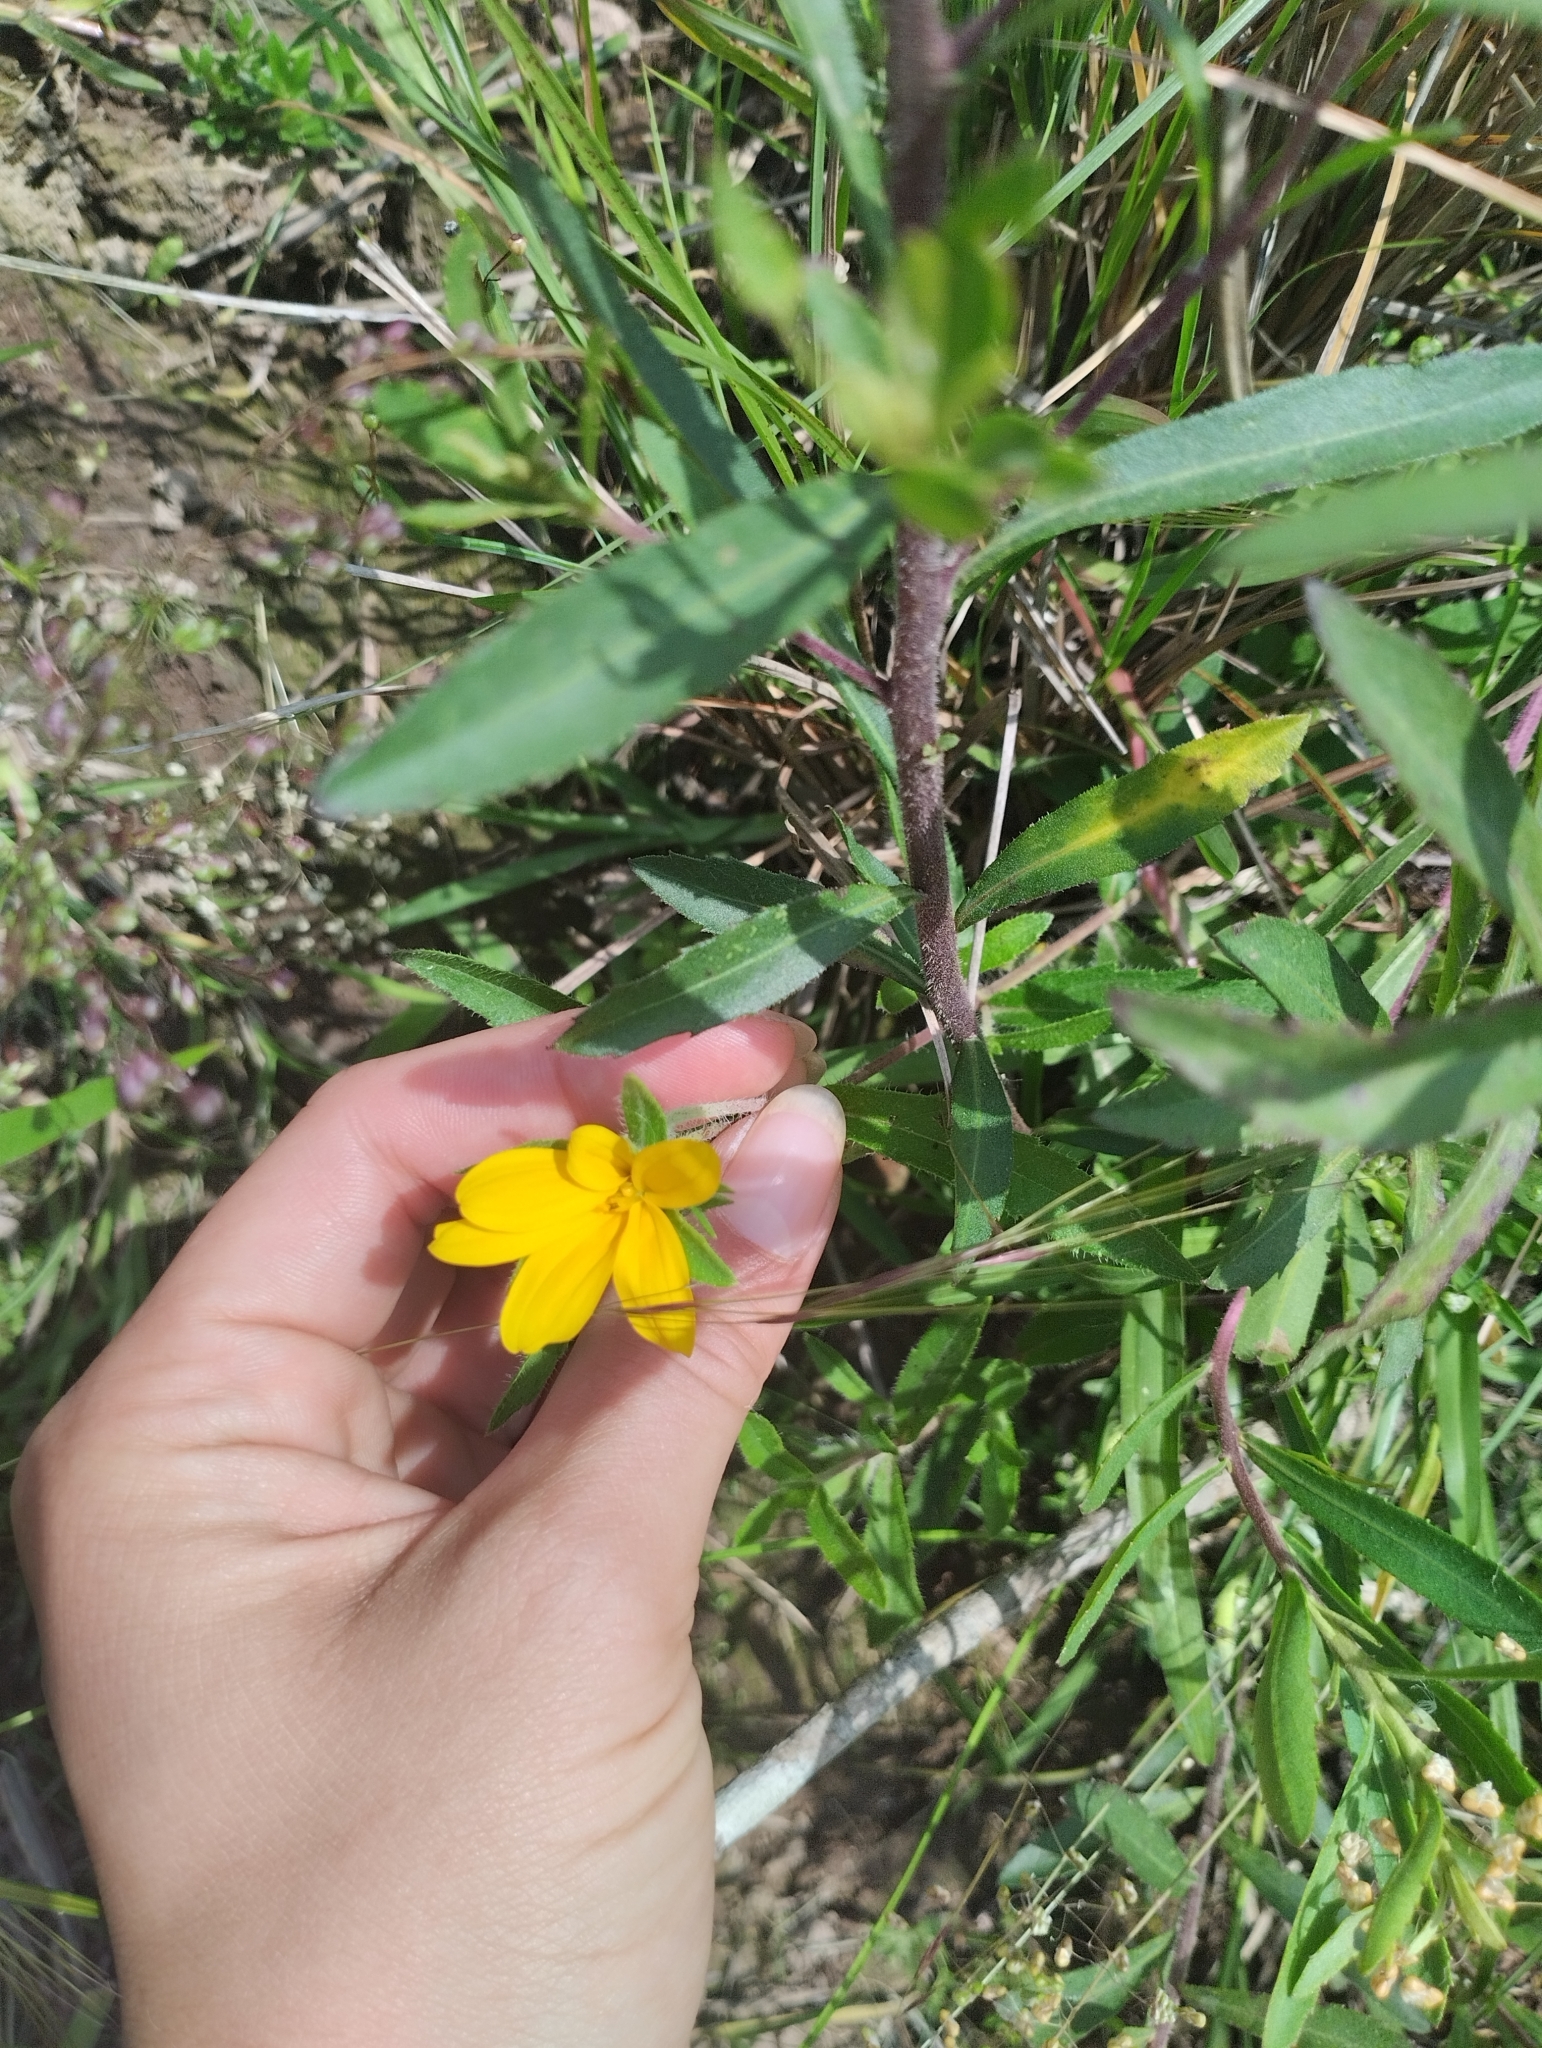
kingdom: Plantae
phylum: Tracheophyta
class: Magnoliopsida
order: Asterales
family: Asteraceae
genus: Wedelia
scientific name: Wedelia montevidensis
